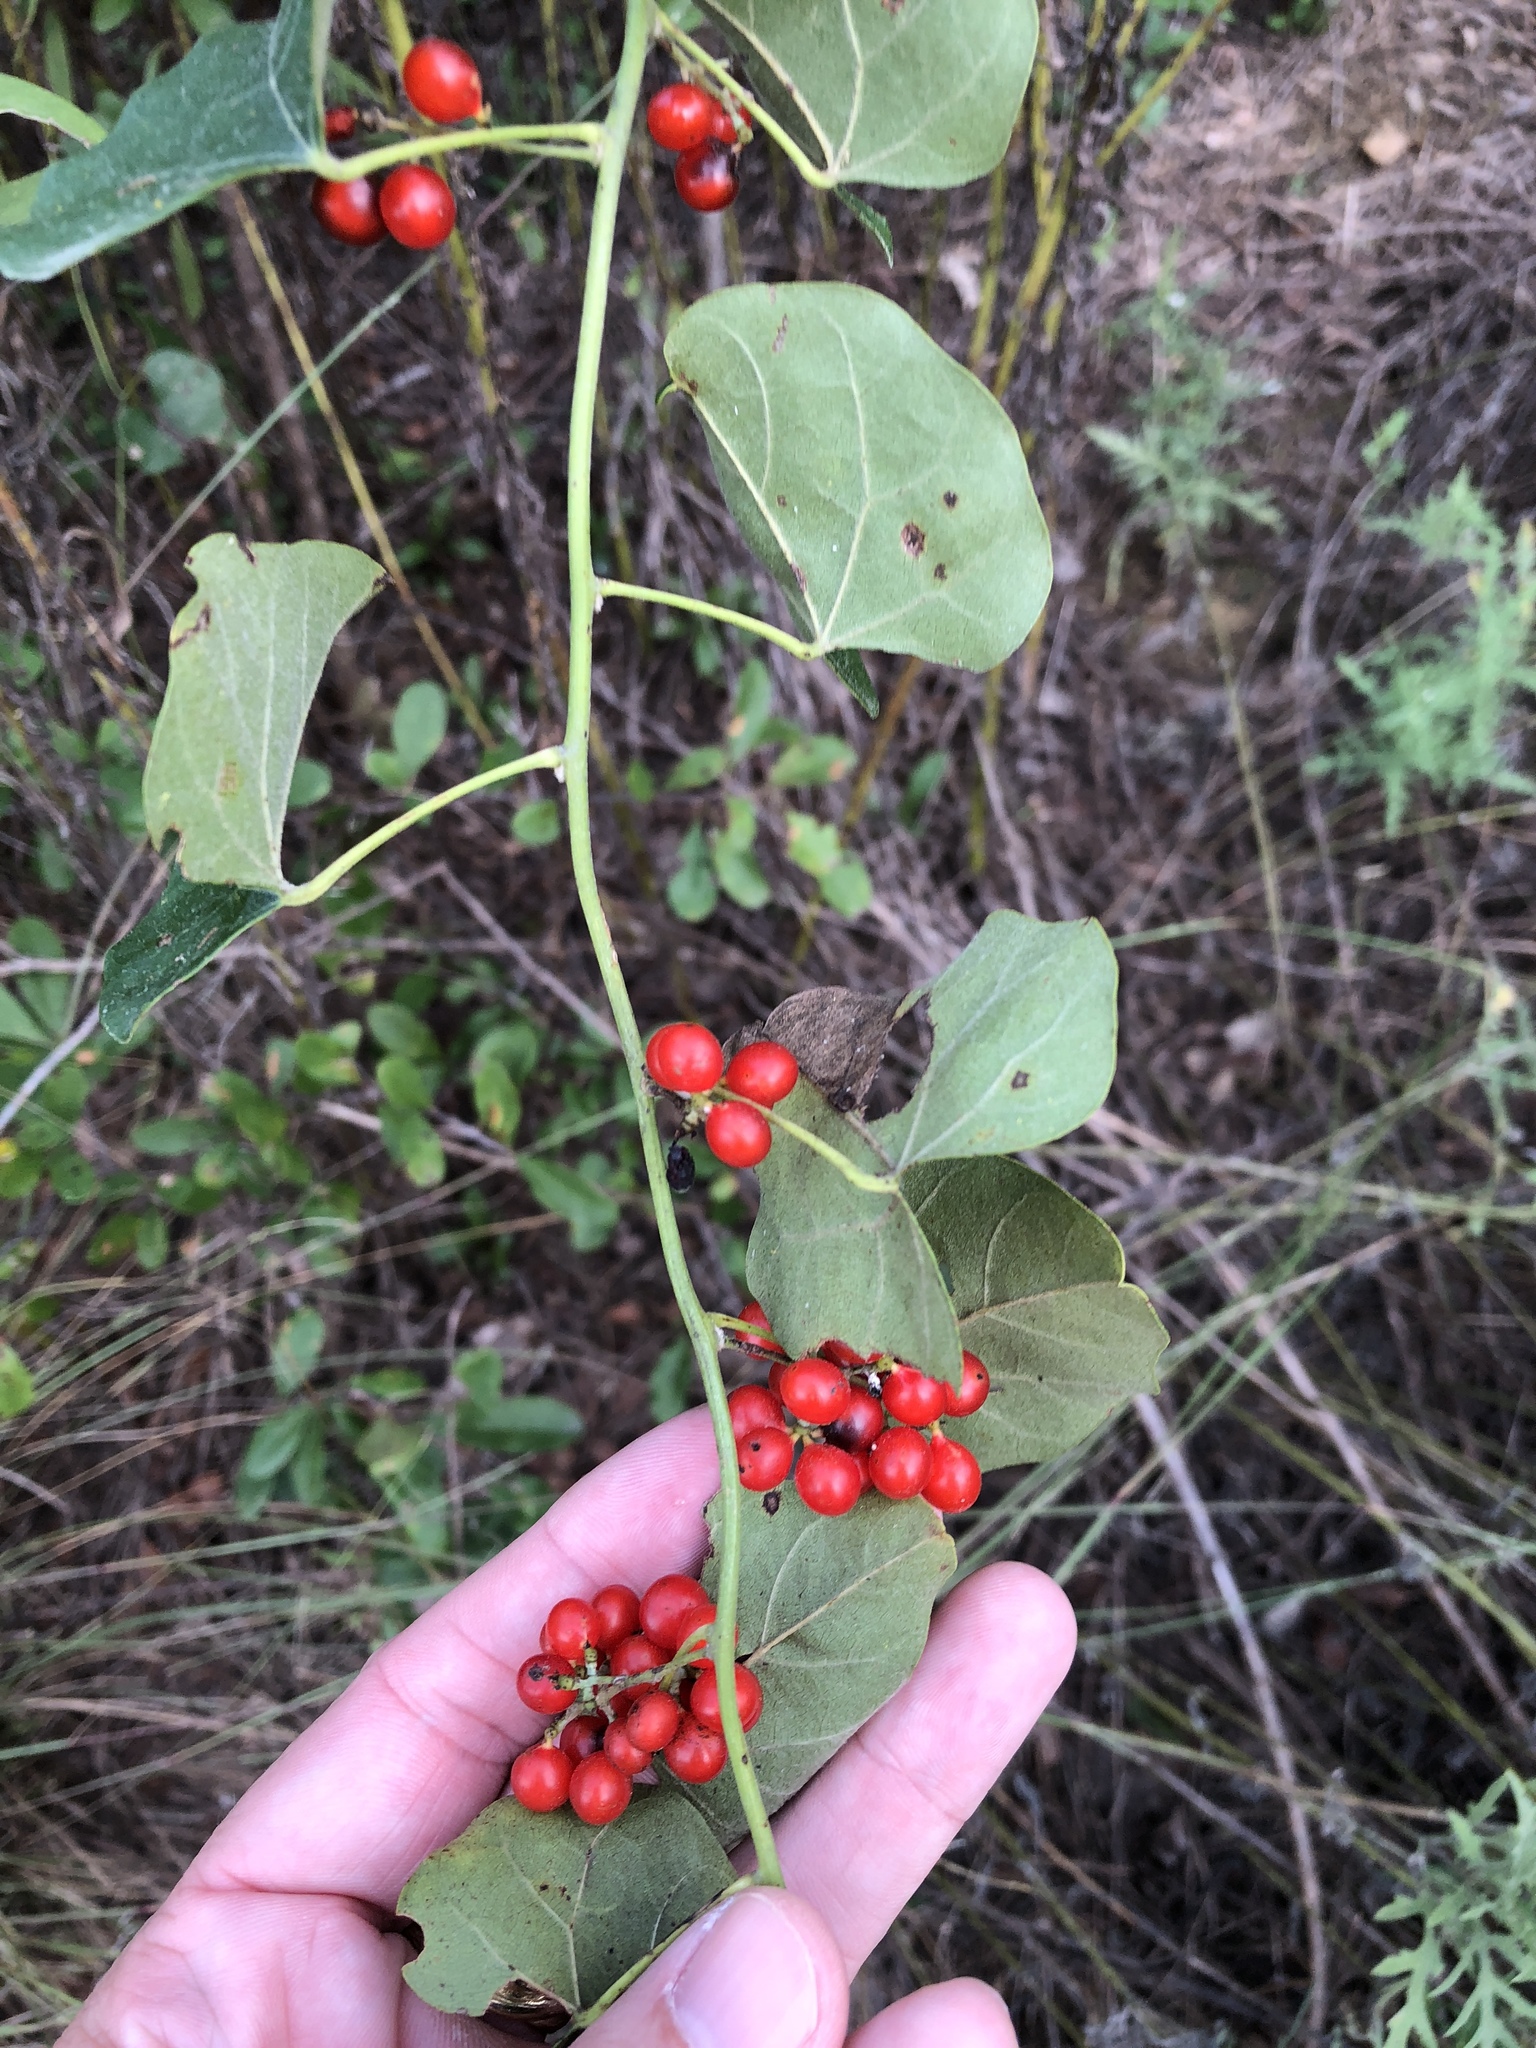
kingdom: Plantae
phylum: Tracheophyta
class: Magnoliopsida
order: Ranunculales
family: Menispermaceae
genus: Cocculus
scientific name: Cocculus carolinus
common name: Carolina moonseed
